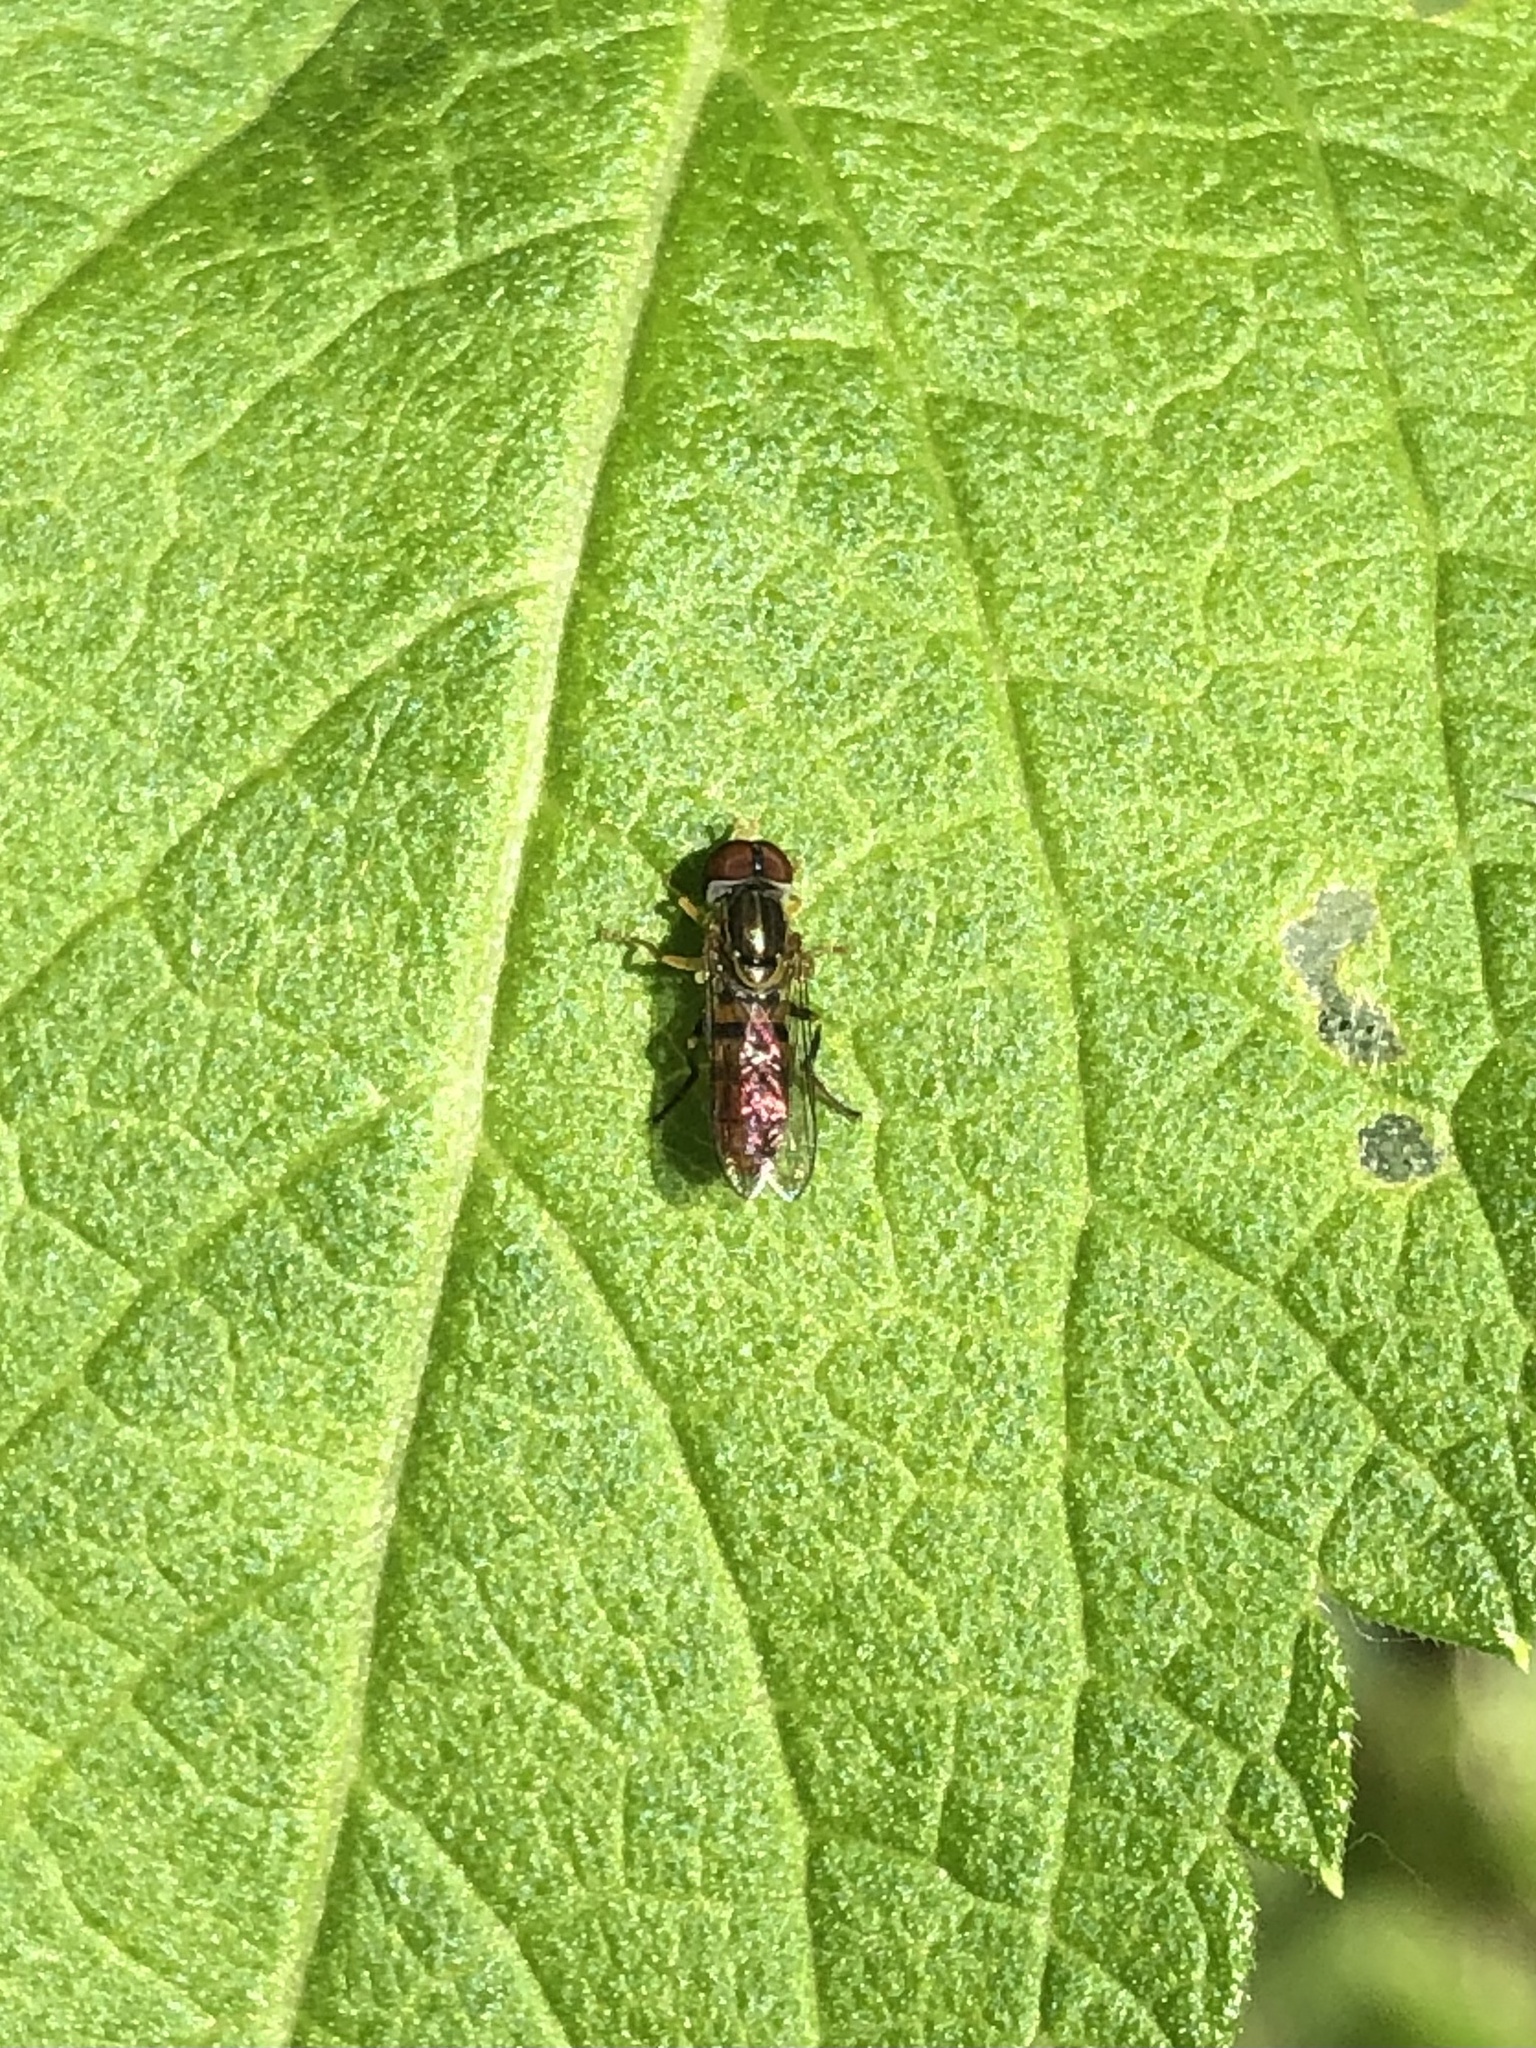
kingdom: Animalia
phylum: Arthropoda
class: Insecta
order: Diptera
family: Syrphidae
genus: Toxomerus
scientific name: Toxomerus boscii
